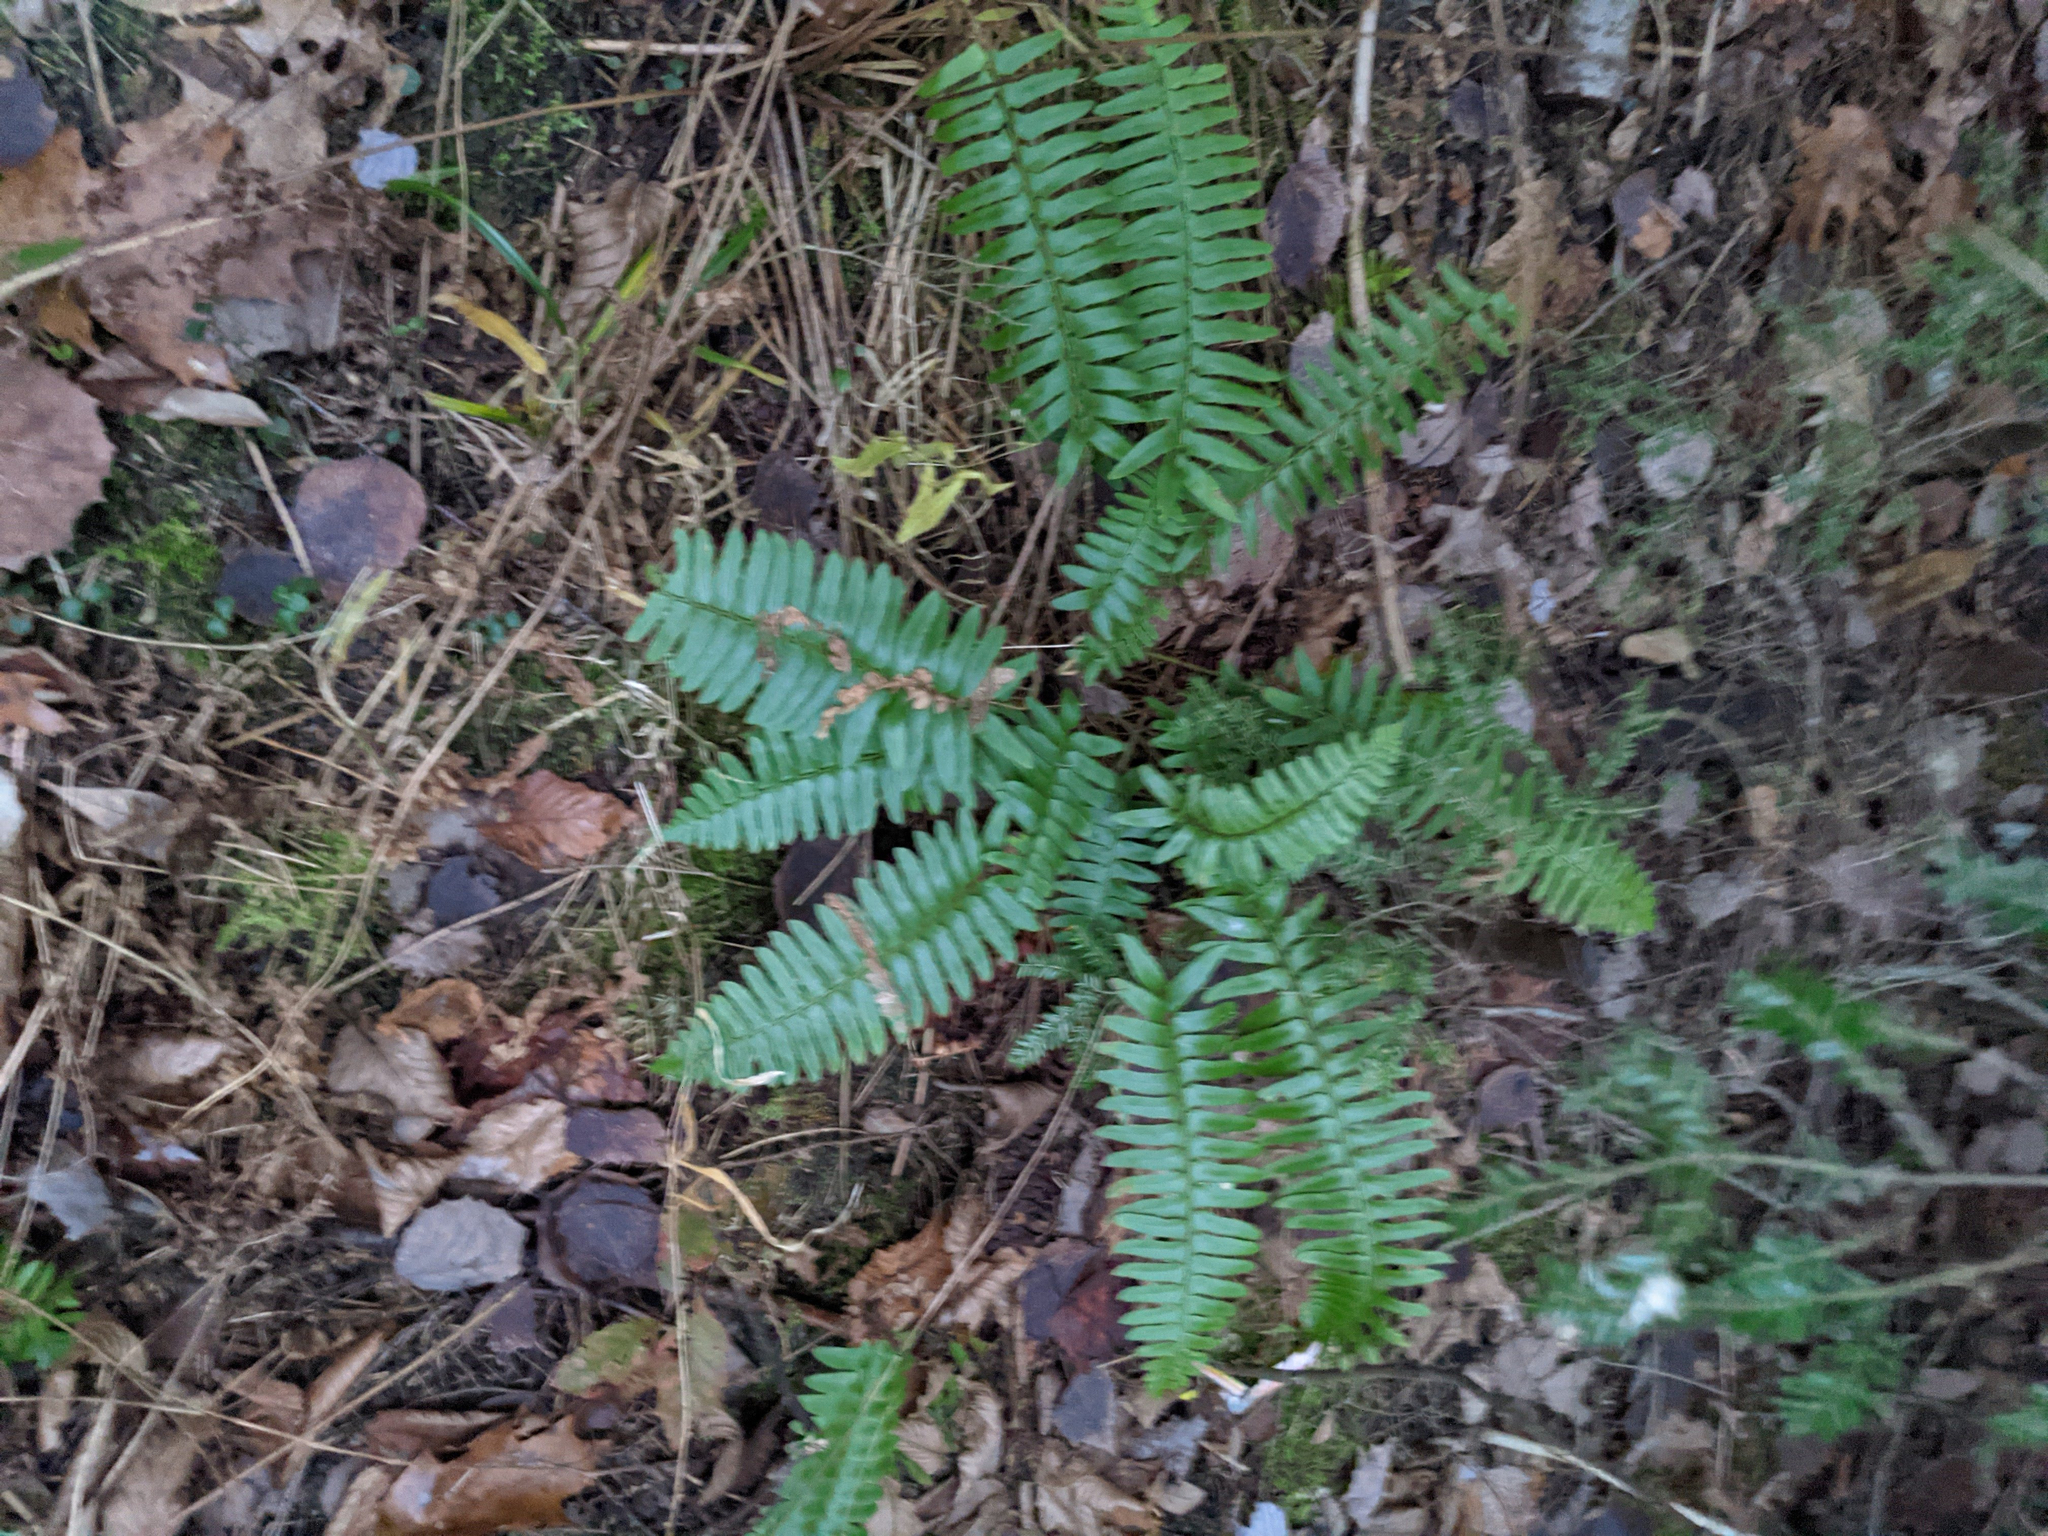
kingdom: Plantae
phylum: Tracheophyta
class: Polypodiopsida
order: Polypodiales
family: Dryopteridaceae
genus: Polystichum
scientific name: Polystichum acrostichoides
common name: Christmas fern
